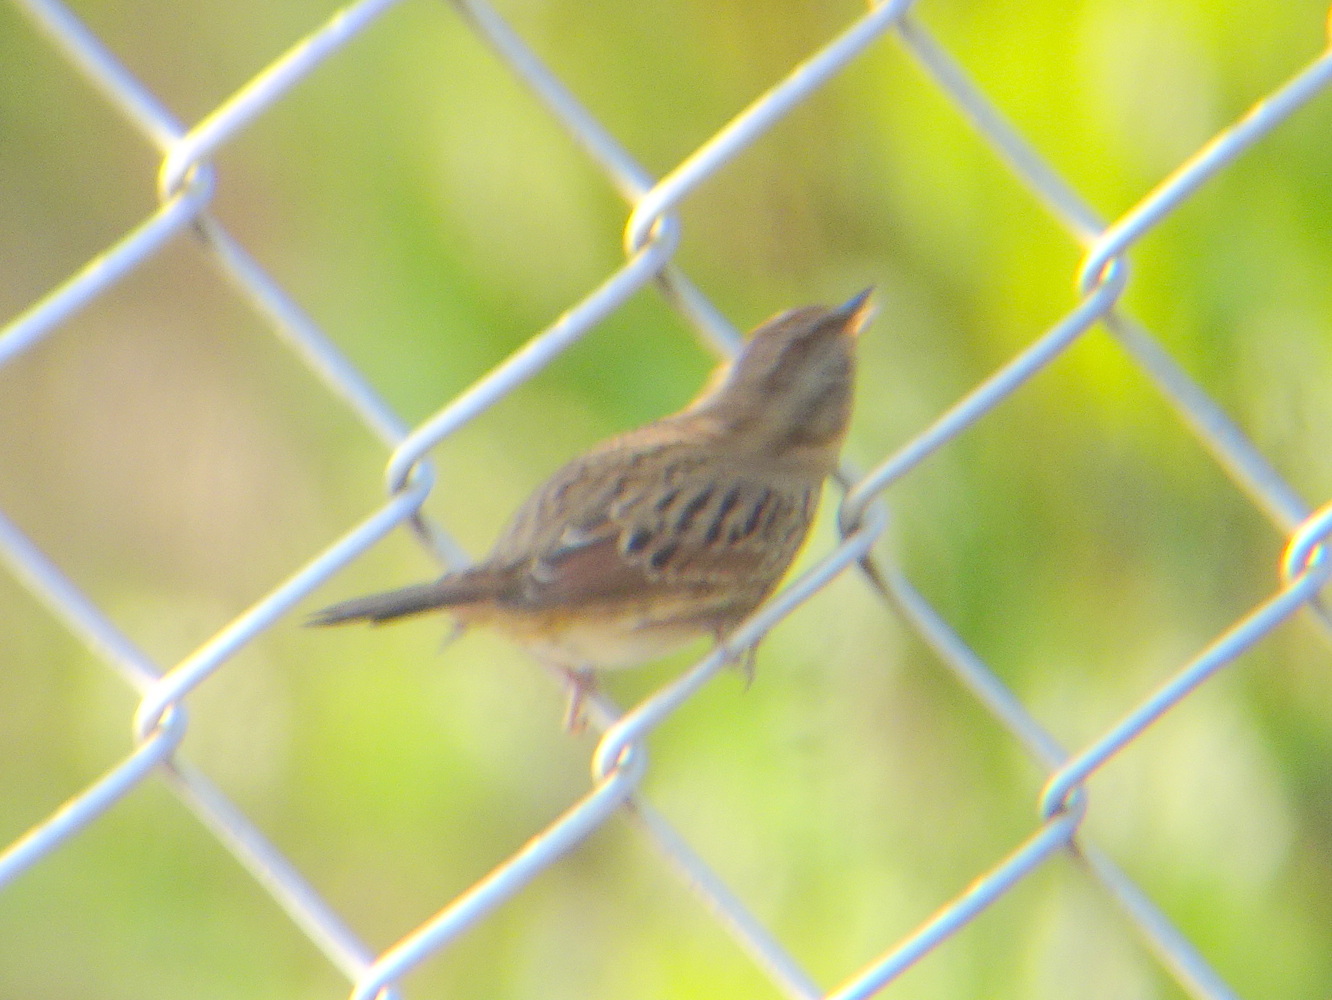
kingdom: Animalia
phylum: Chordata
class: Aves
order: Passeriformes
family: Passerellidae
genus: Melospiza
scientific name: Melospiza lincolnii
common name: Lincoln's sparrow
